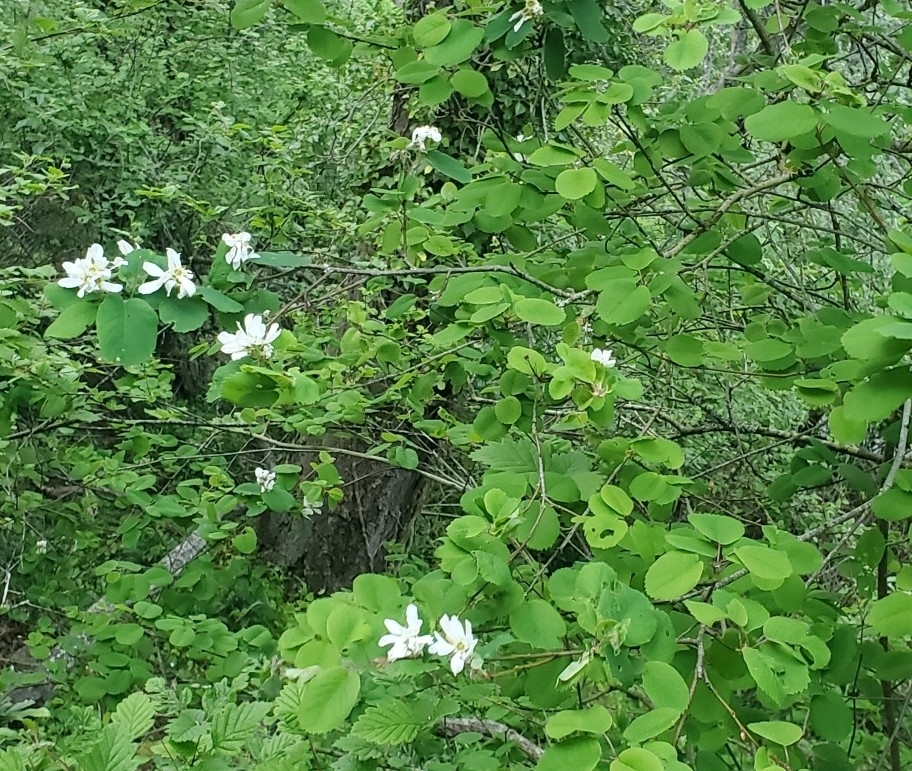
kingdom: Plantae
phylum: Tracheophyta
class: Magnoliopsida
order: Rosales
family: Rosaceae
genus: Amelanchier
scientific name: Amelanchier alnifolia
